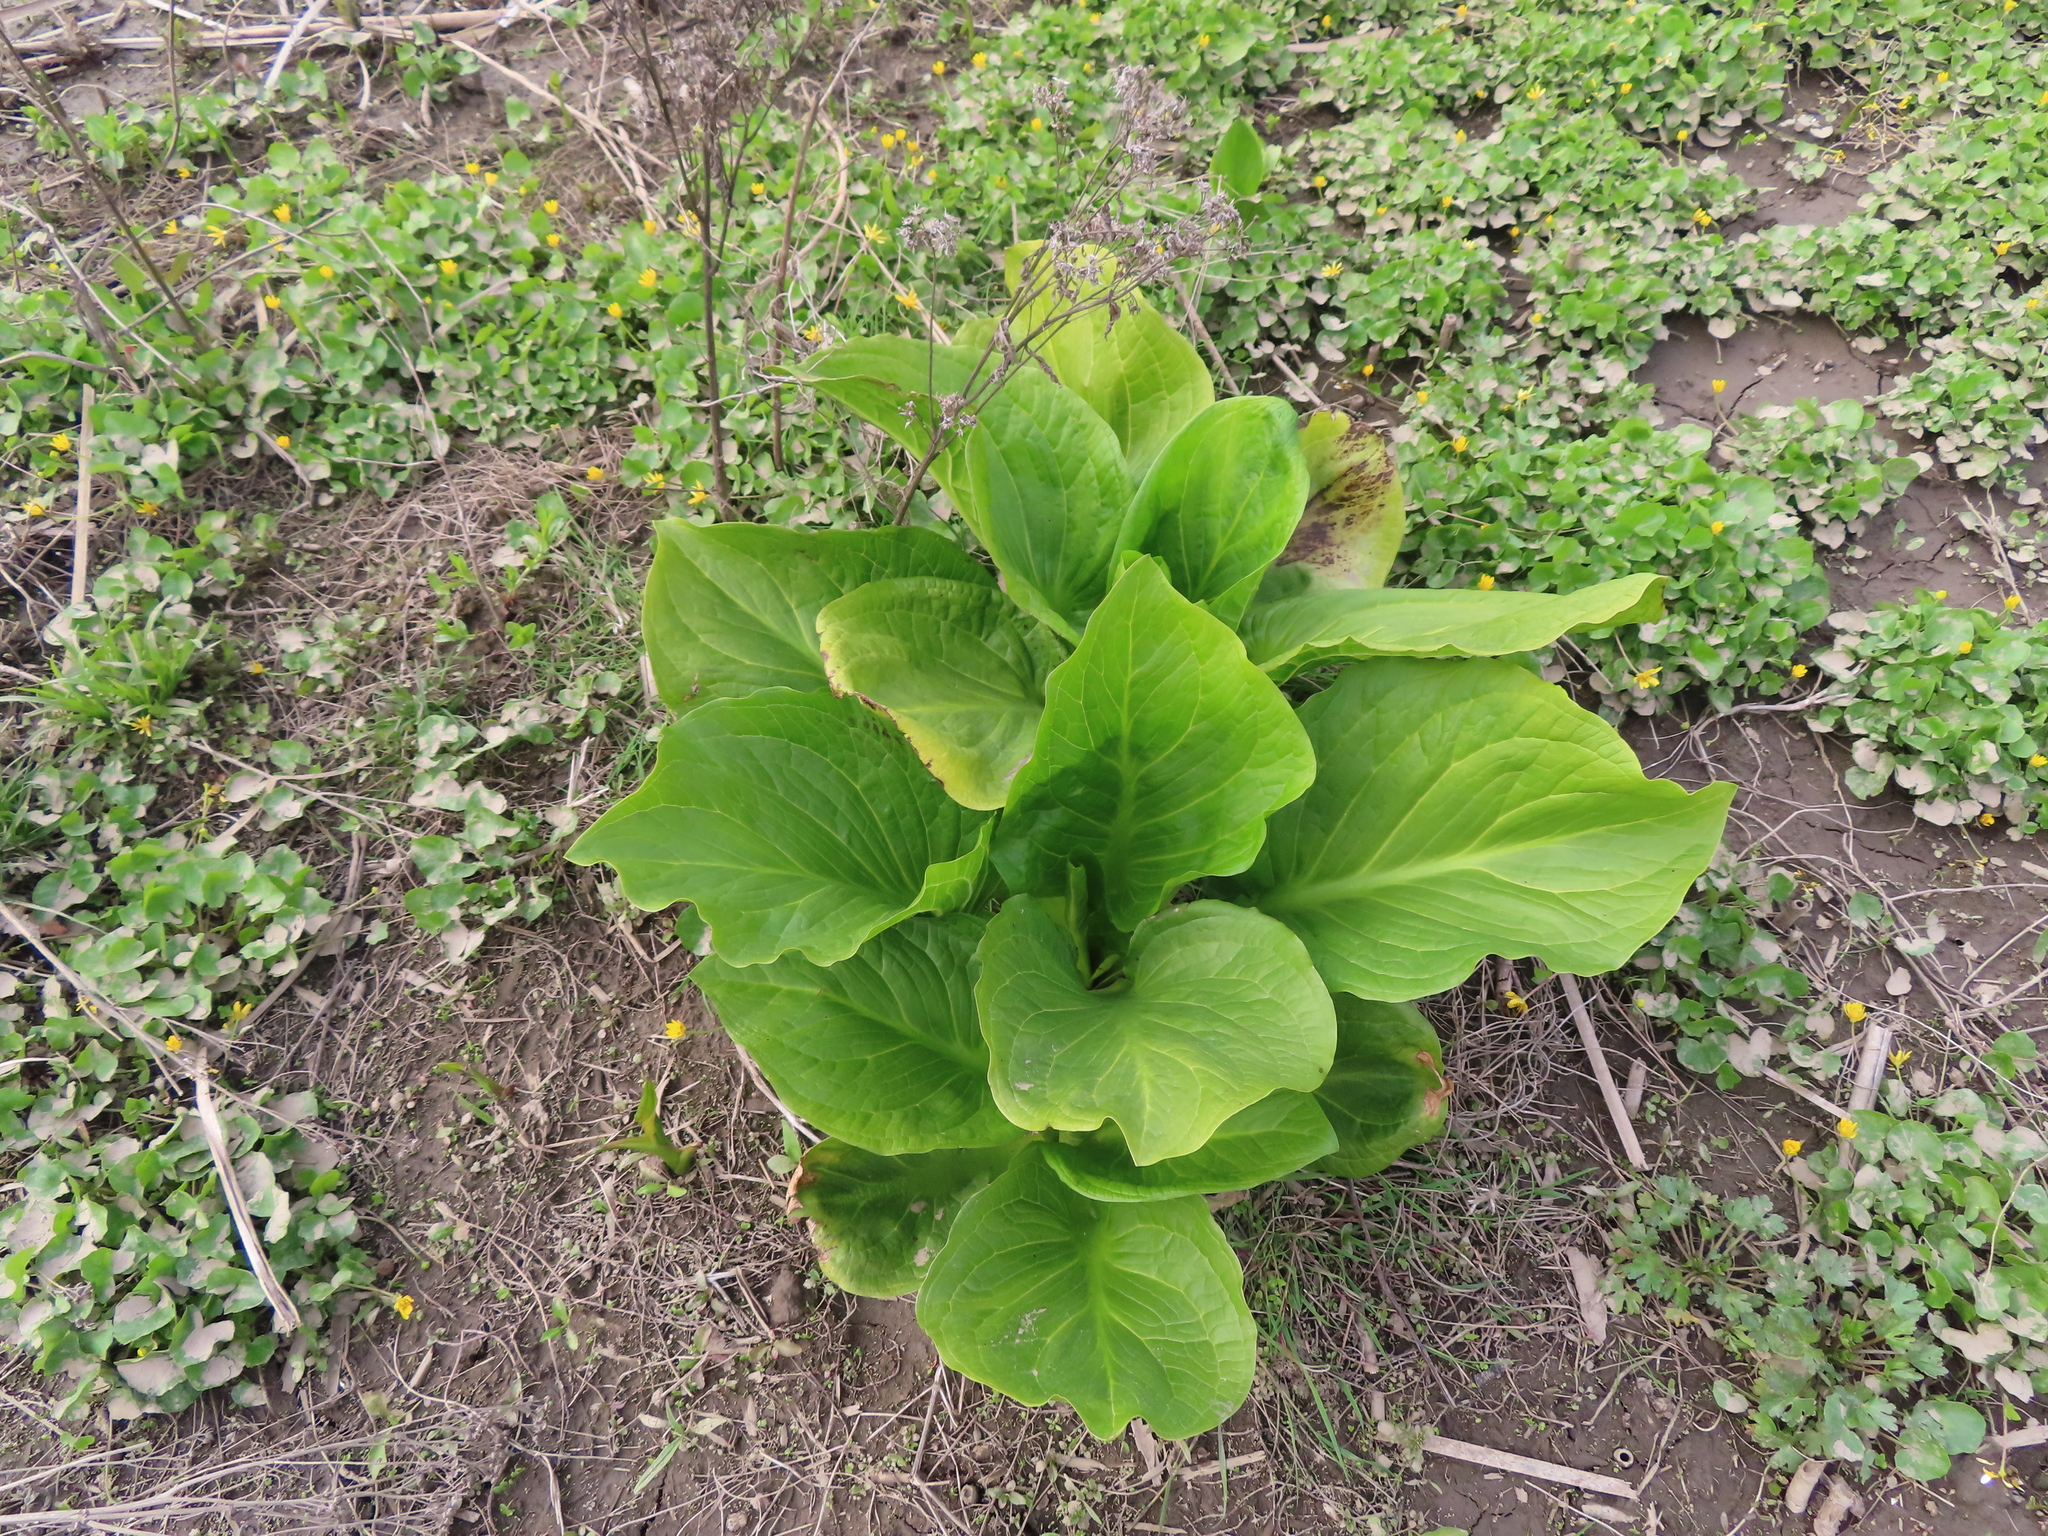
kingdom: Plantae
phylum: Tracheophyta
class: Liliopsida
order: Alismatales
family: Araceae
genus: Symplocarpus
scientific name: Symplocarpus foetidus
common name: Eastern skunk cabbage
